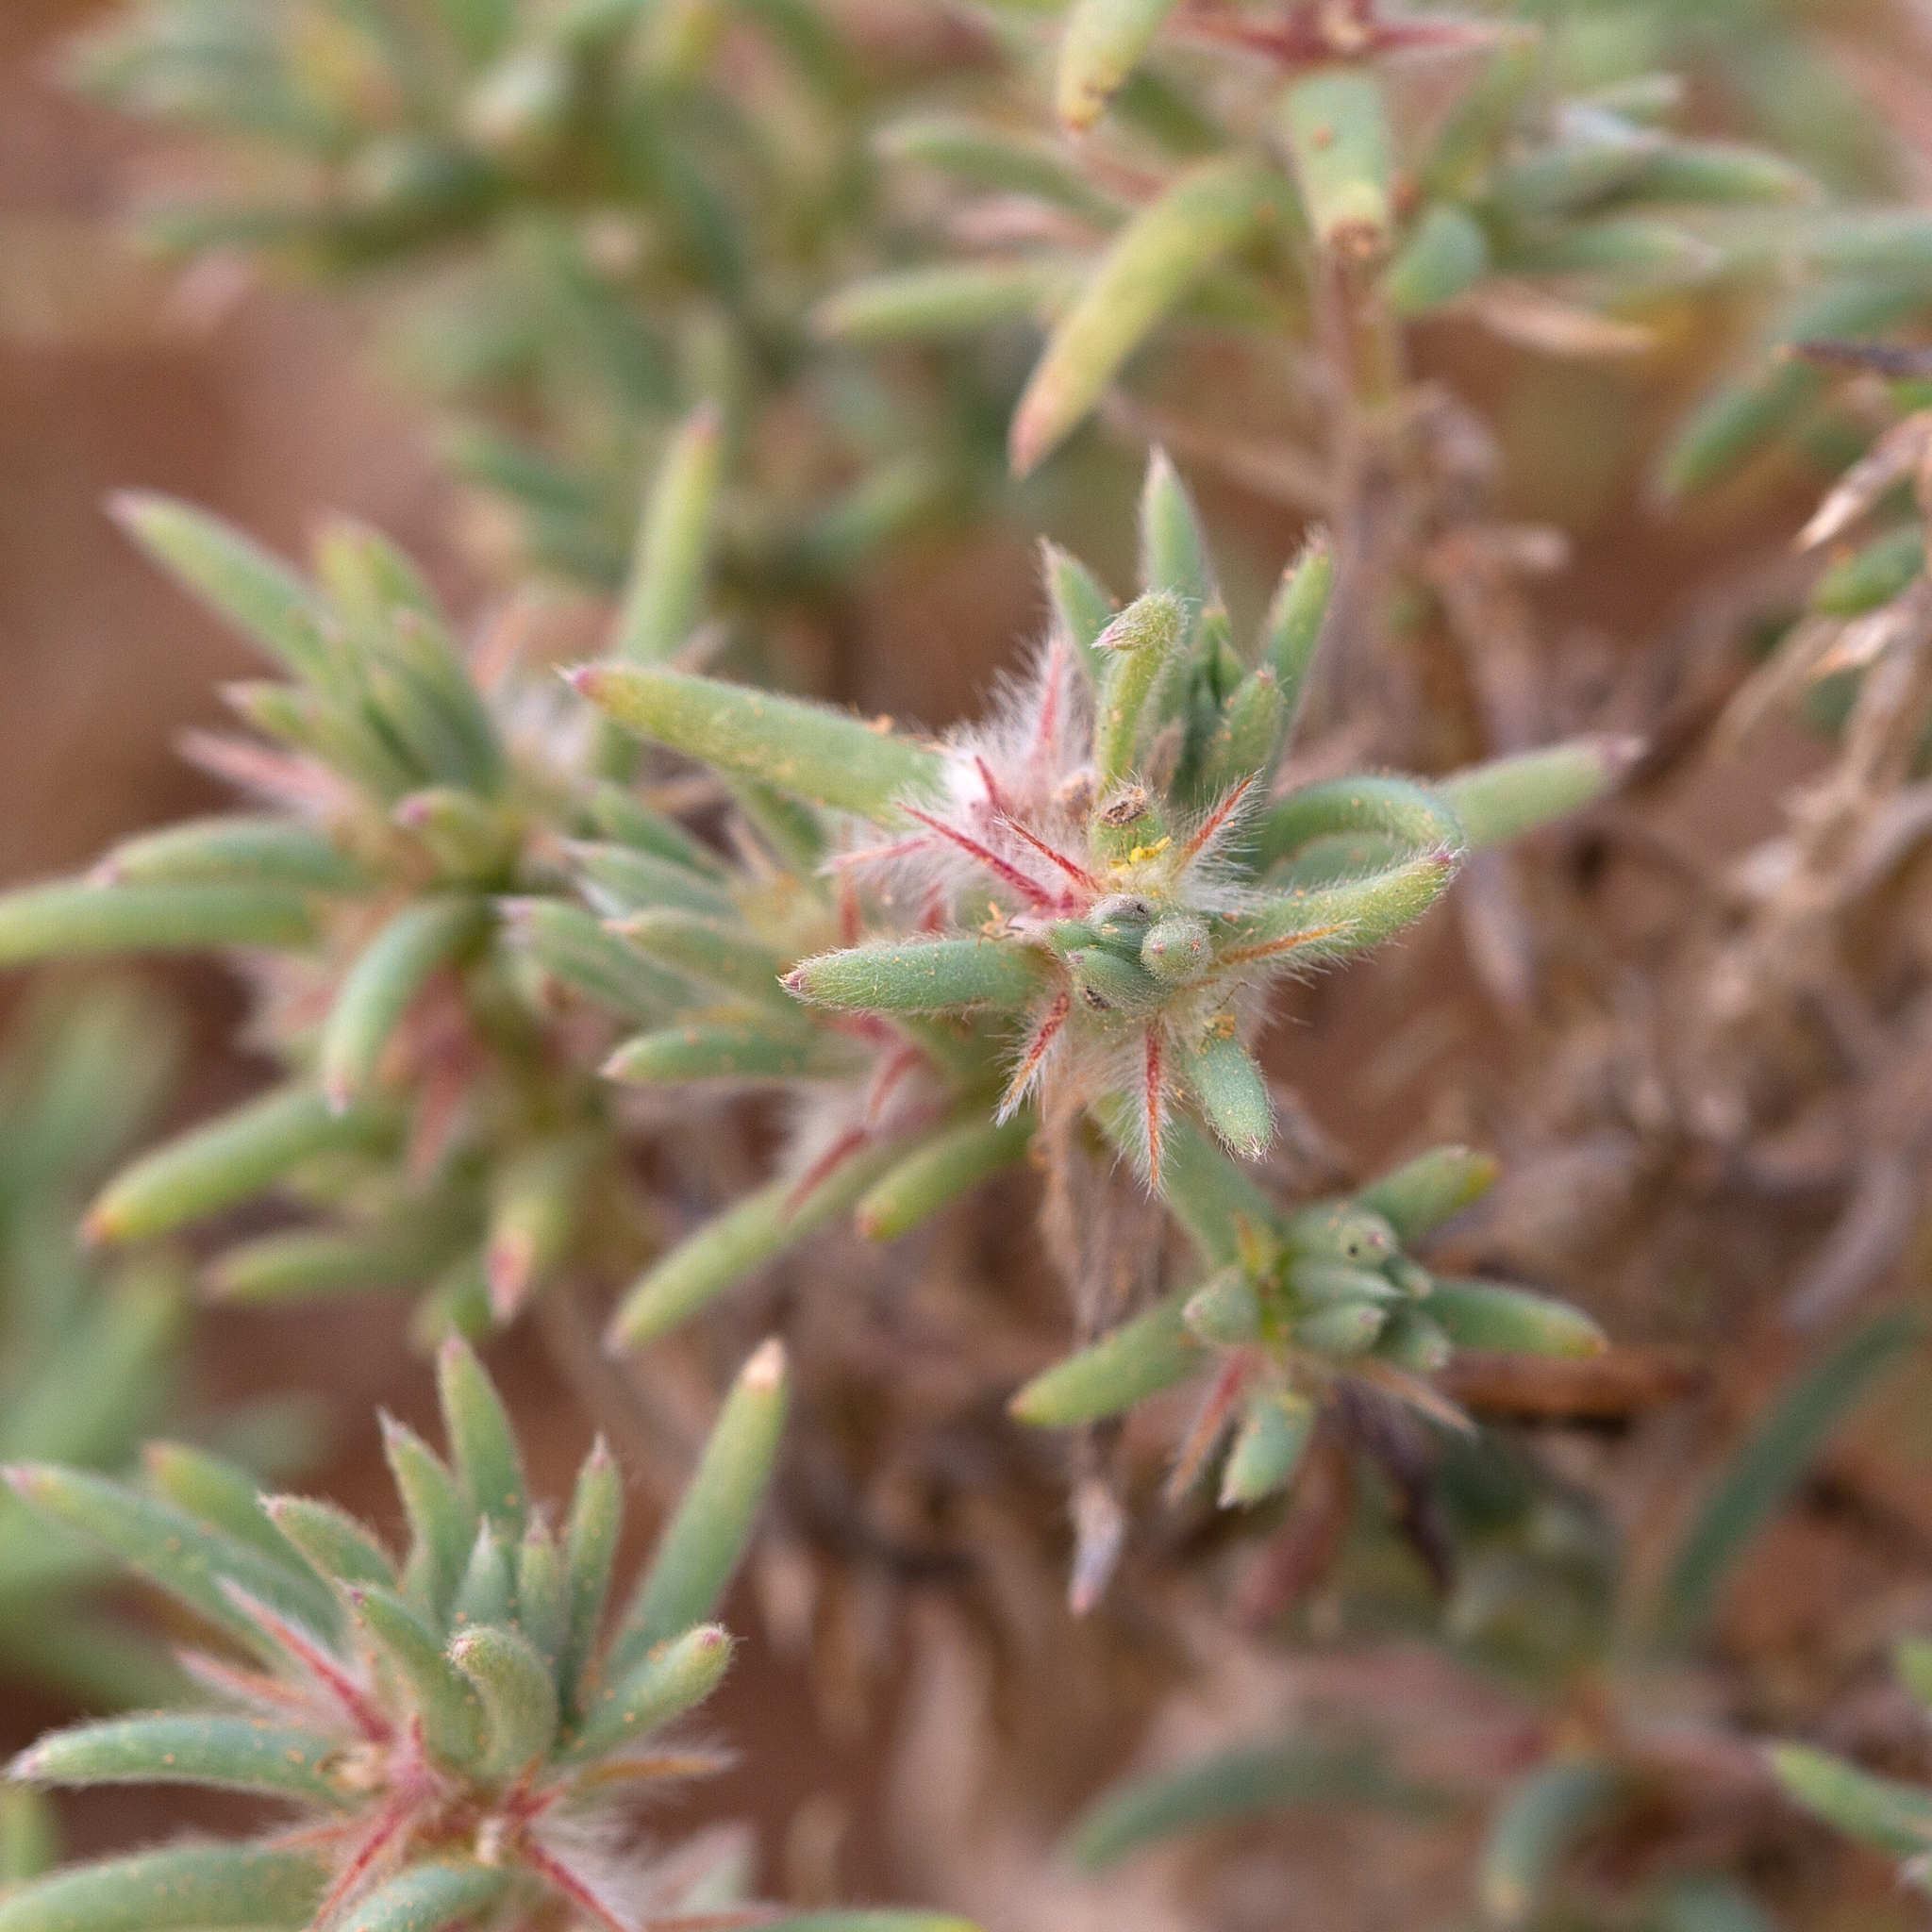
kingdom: Plantae
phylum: Tracheophyta
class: Magnoliopsida
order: Caryophyllales
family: Amaranthaceae
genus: Sclerolaena
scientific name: Sclerolaena lanicuspis
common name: Copperbur
